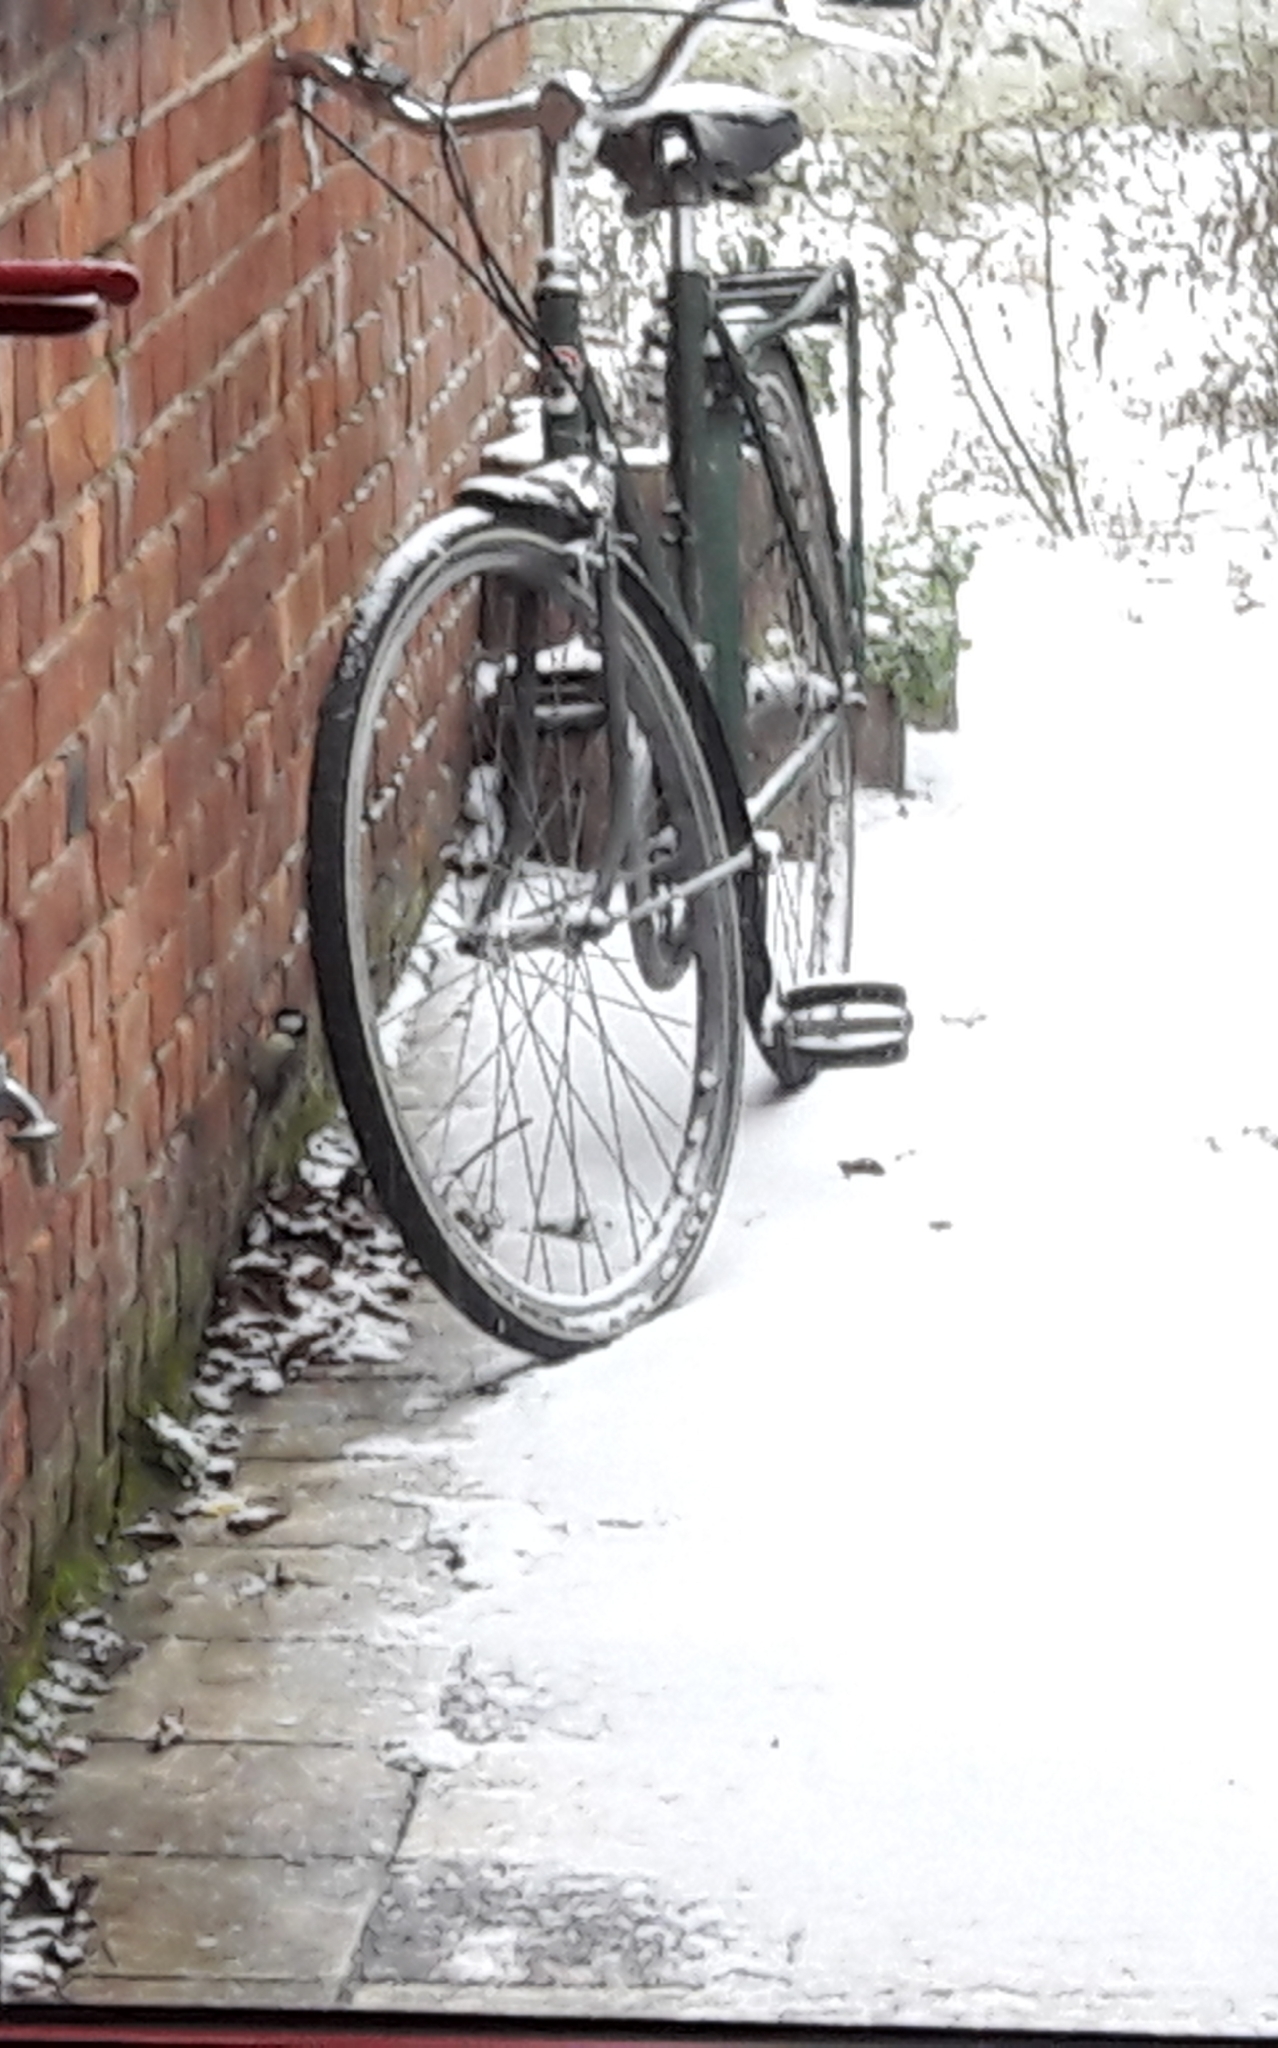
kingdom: Animalia
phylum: Chordata
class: Aves
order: Passeriformes
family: Paridae
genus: Parus
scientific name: Parus major
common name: Great tit
